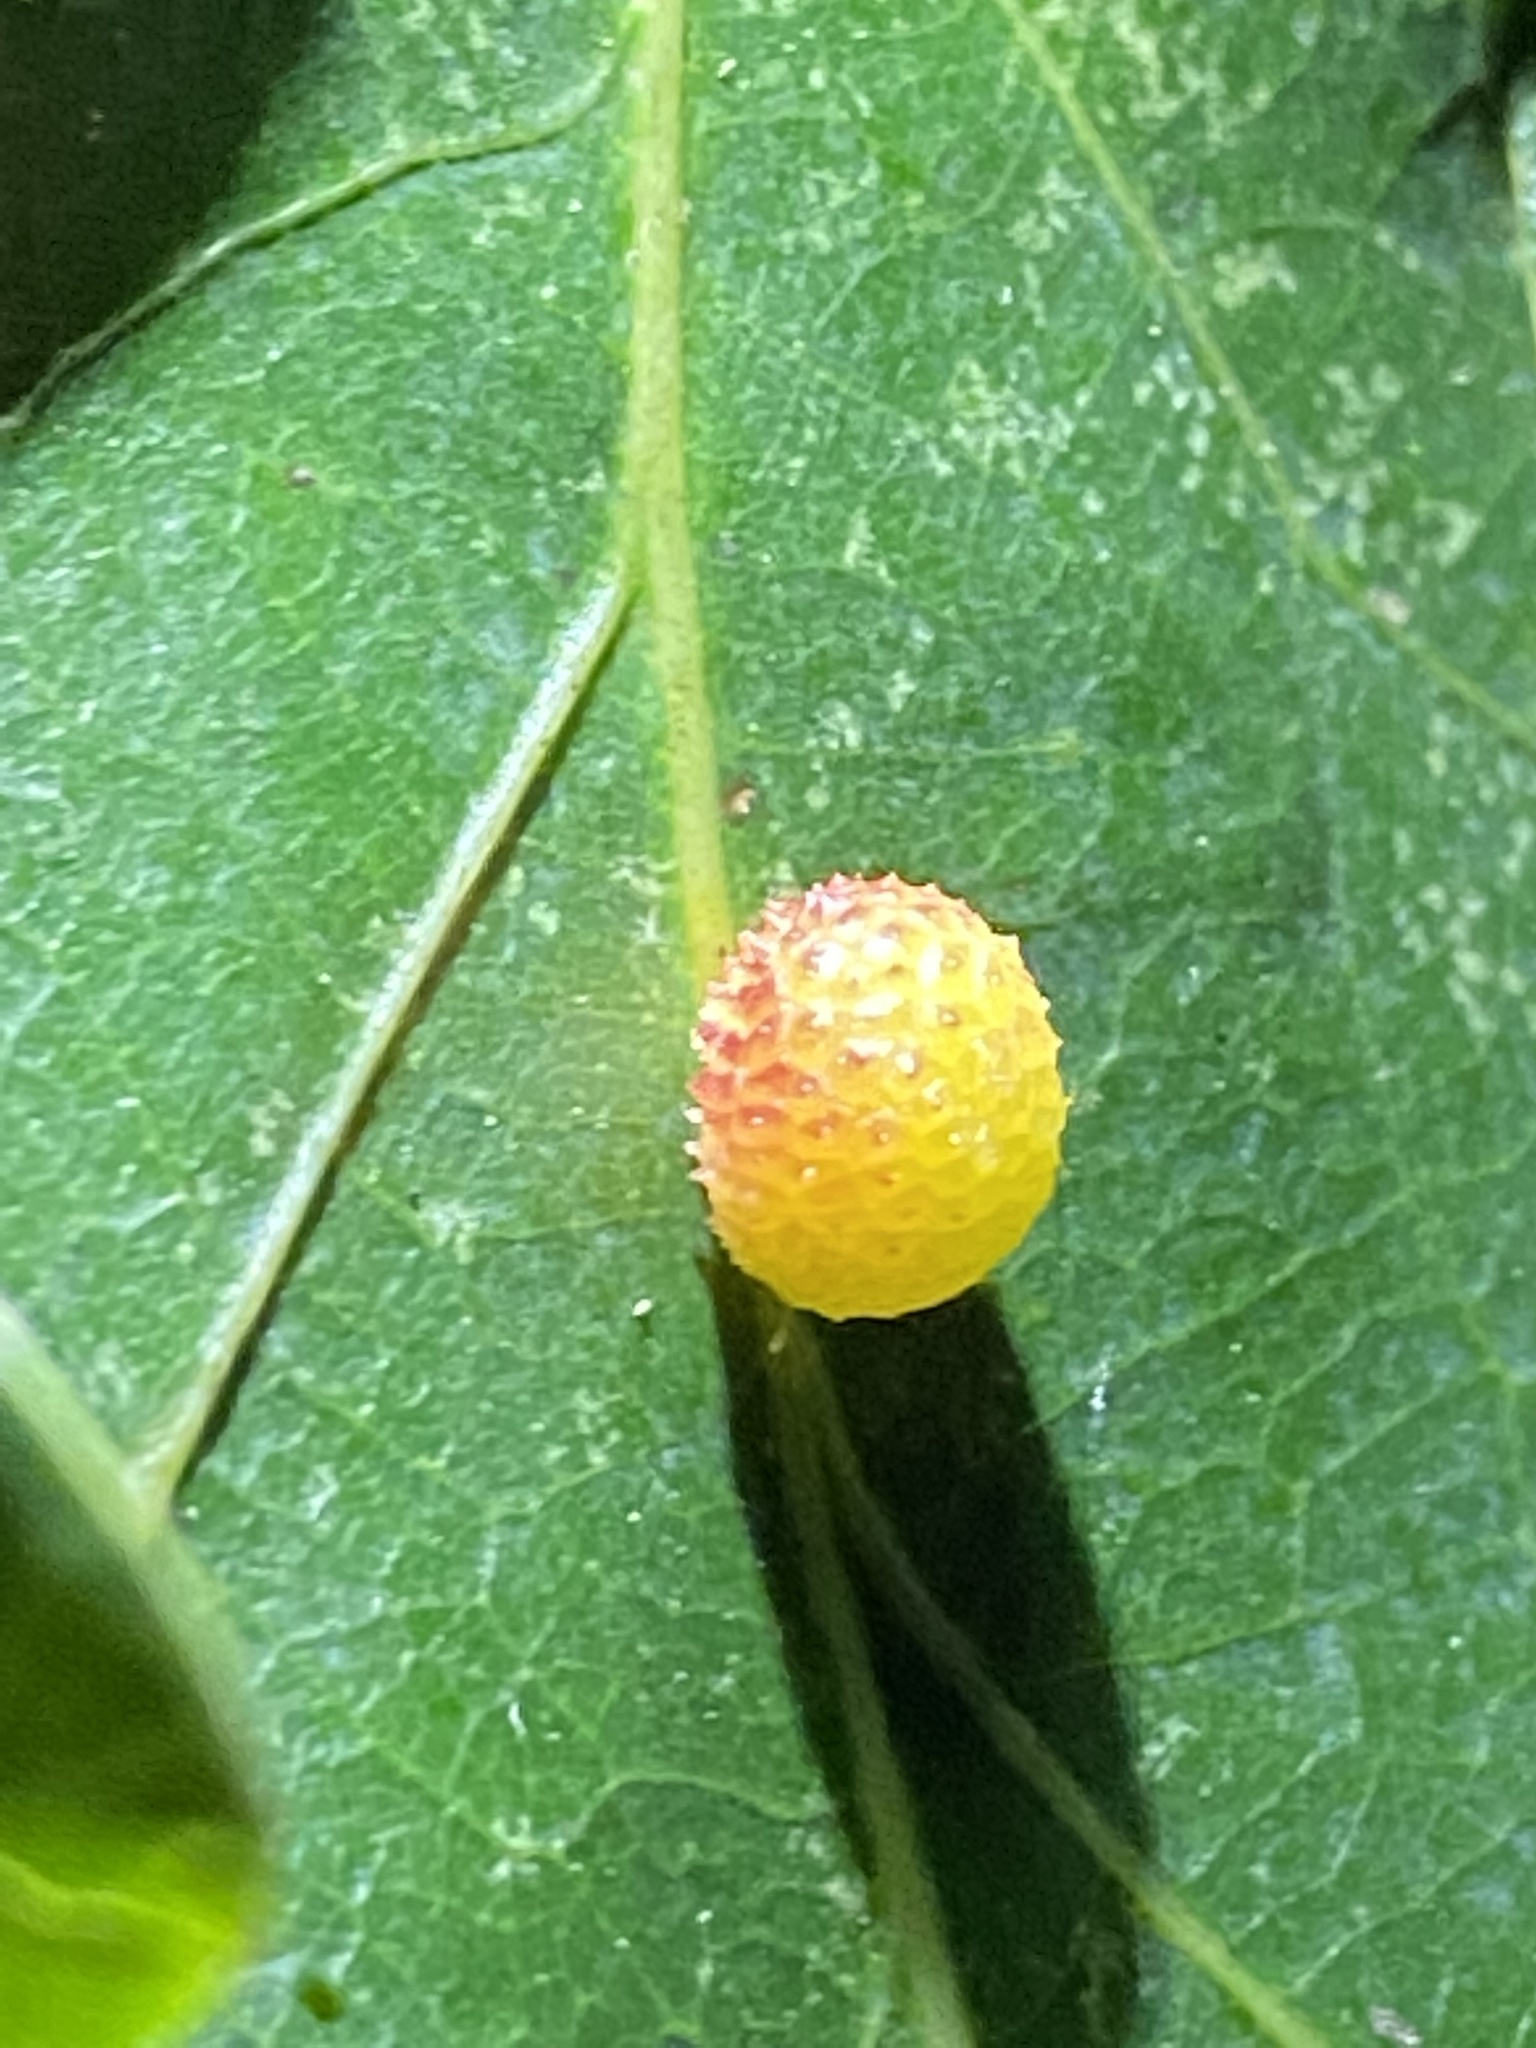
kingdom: Animalia
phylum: Arthropoda
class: Insecta
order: Hymenoptera
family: Cynipidae
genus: Acraspis
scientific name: Acraspis
